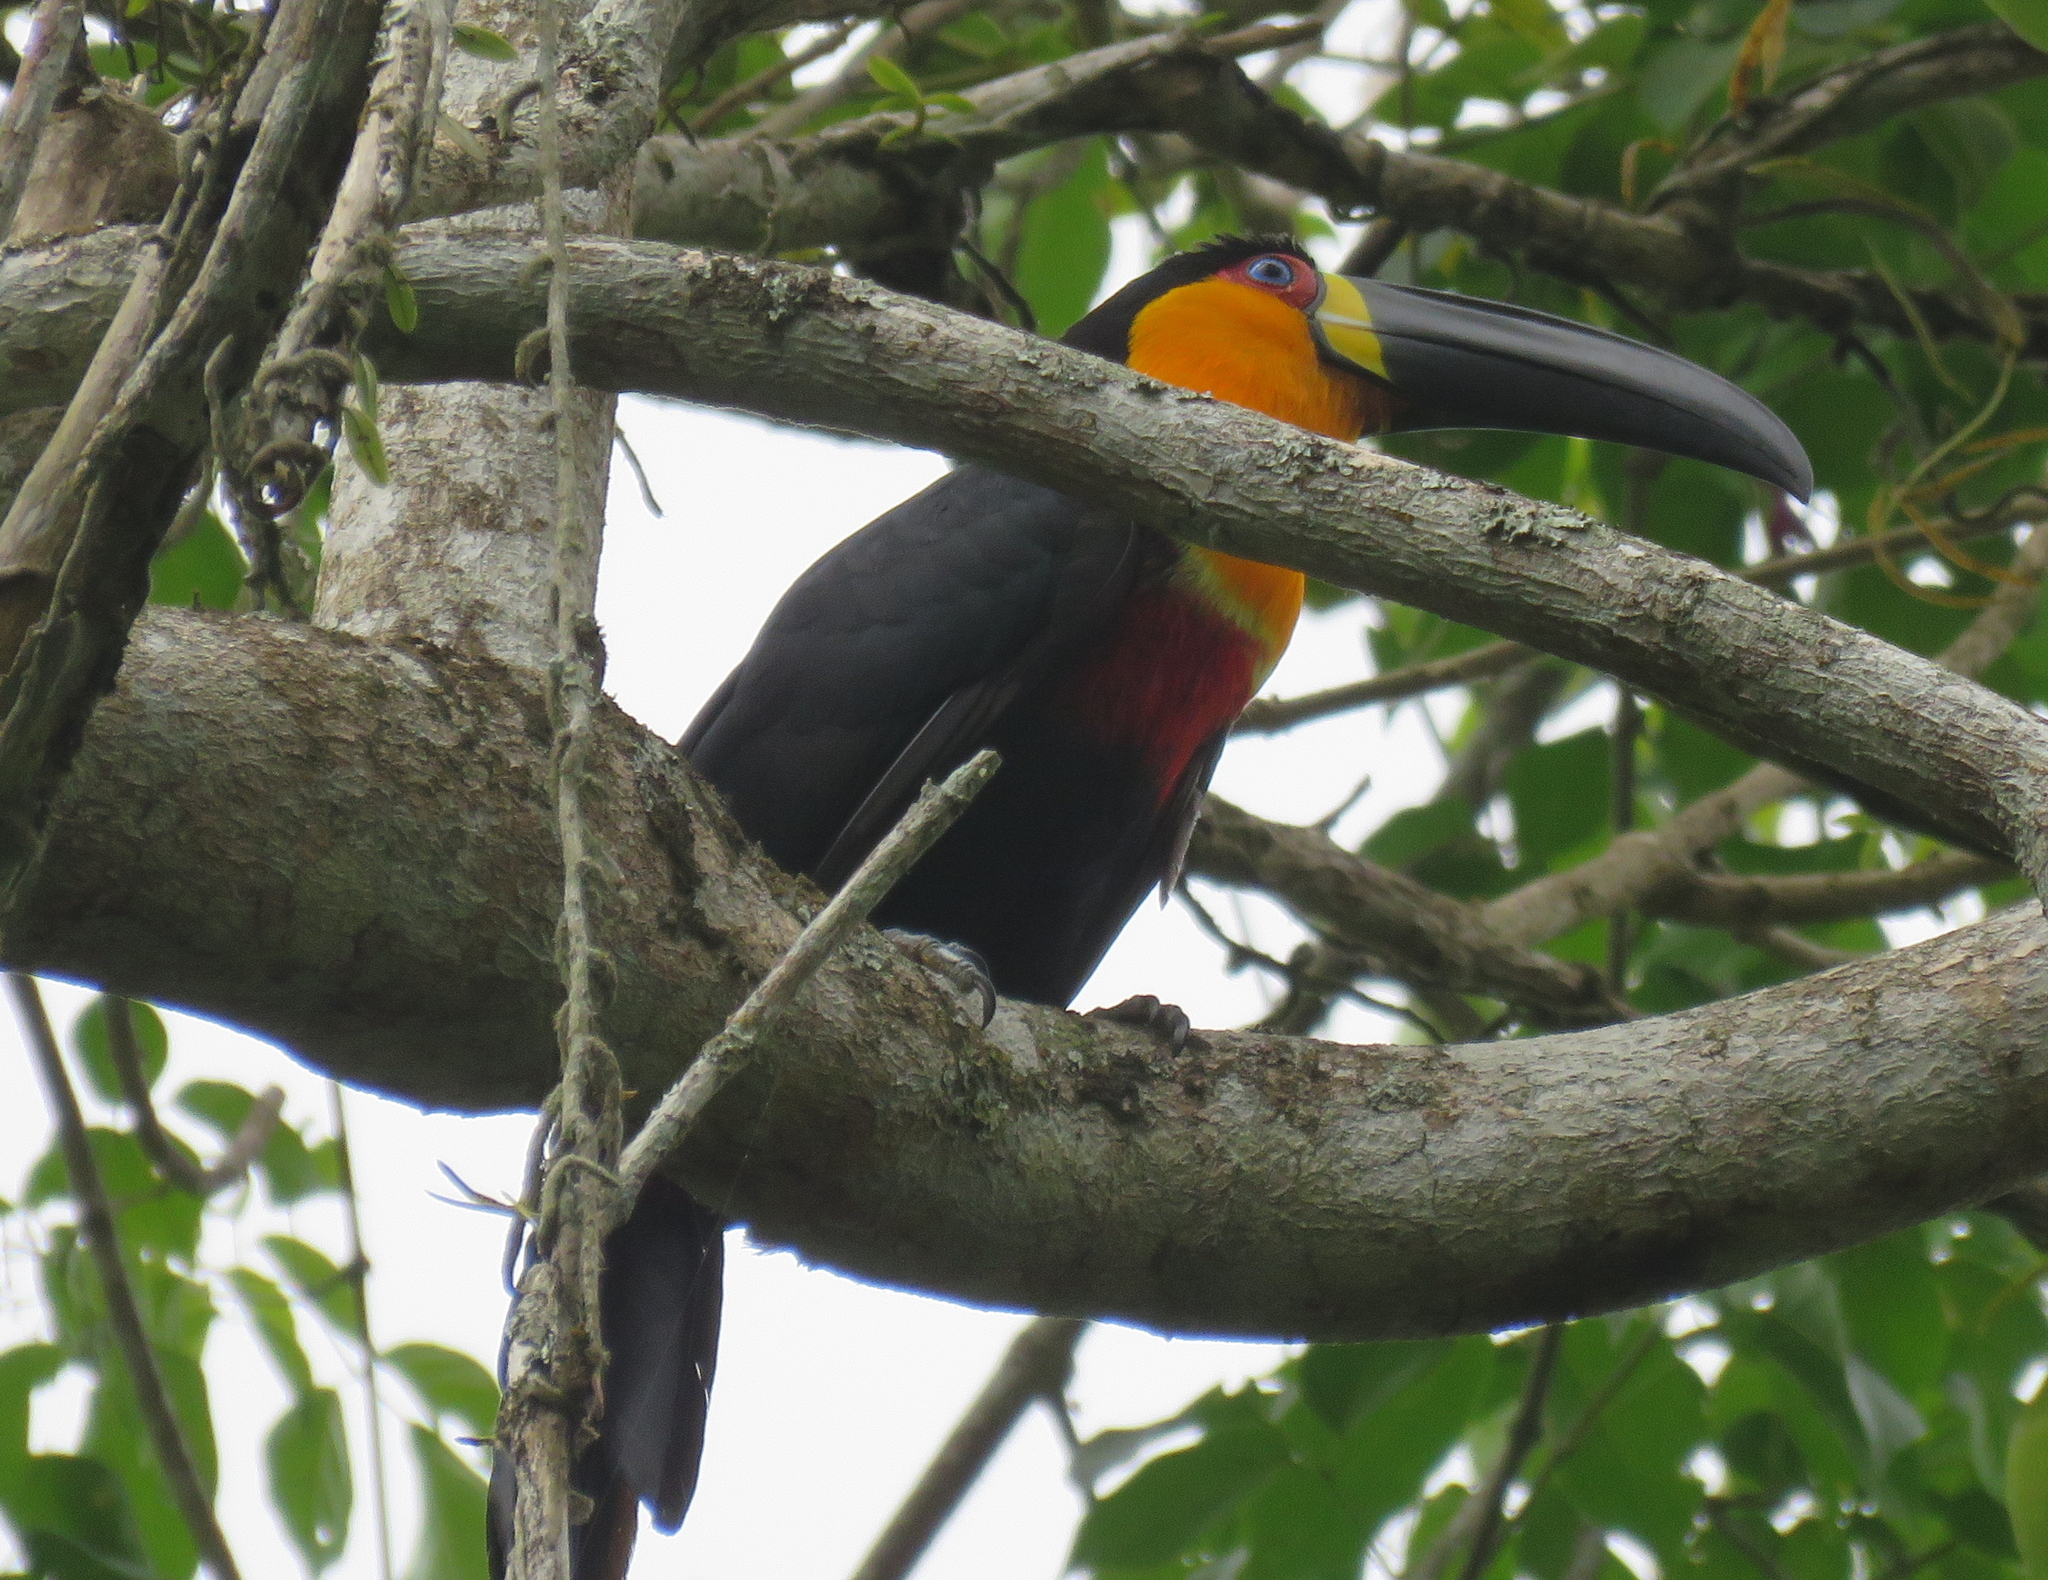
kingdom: Animalia
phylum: Chordata
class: Aves
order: Piciformes
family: Ramphastidae
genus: Ramphastos
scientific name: Ramphastos vitellinus
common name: Channel-billed toucan
